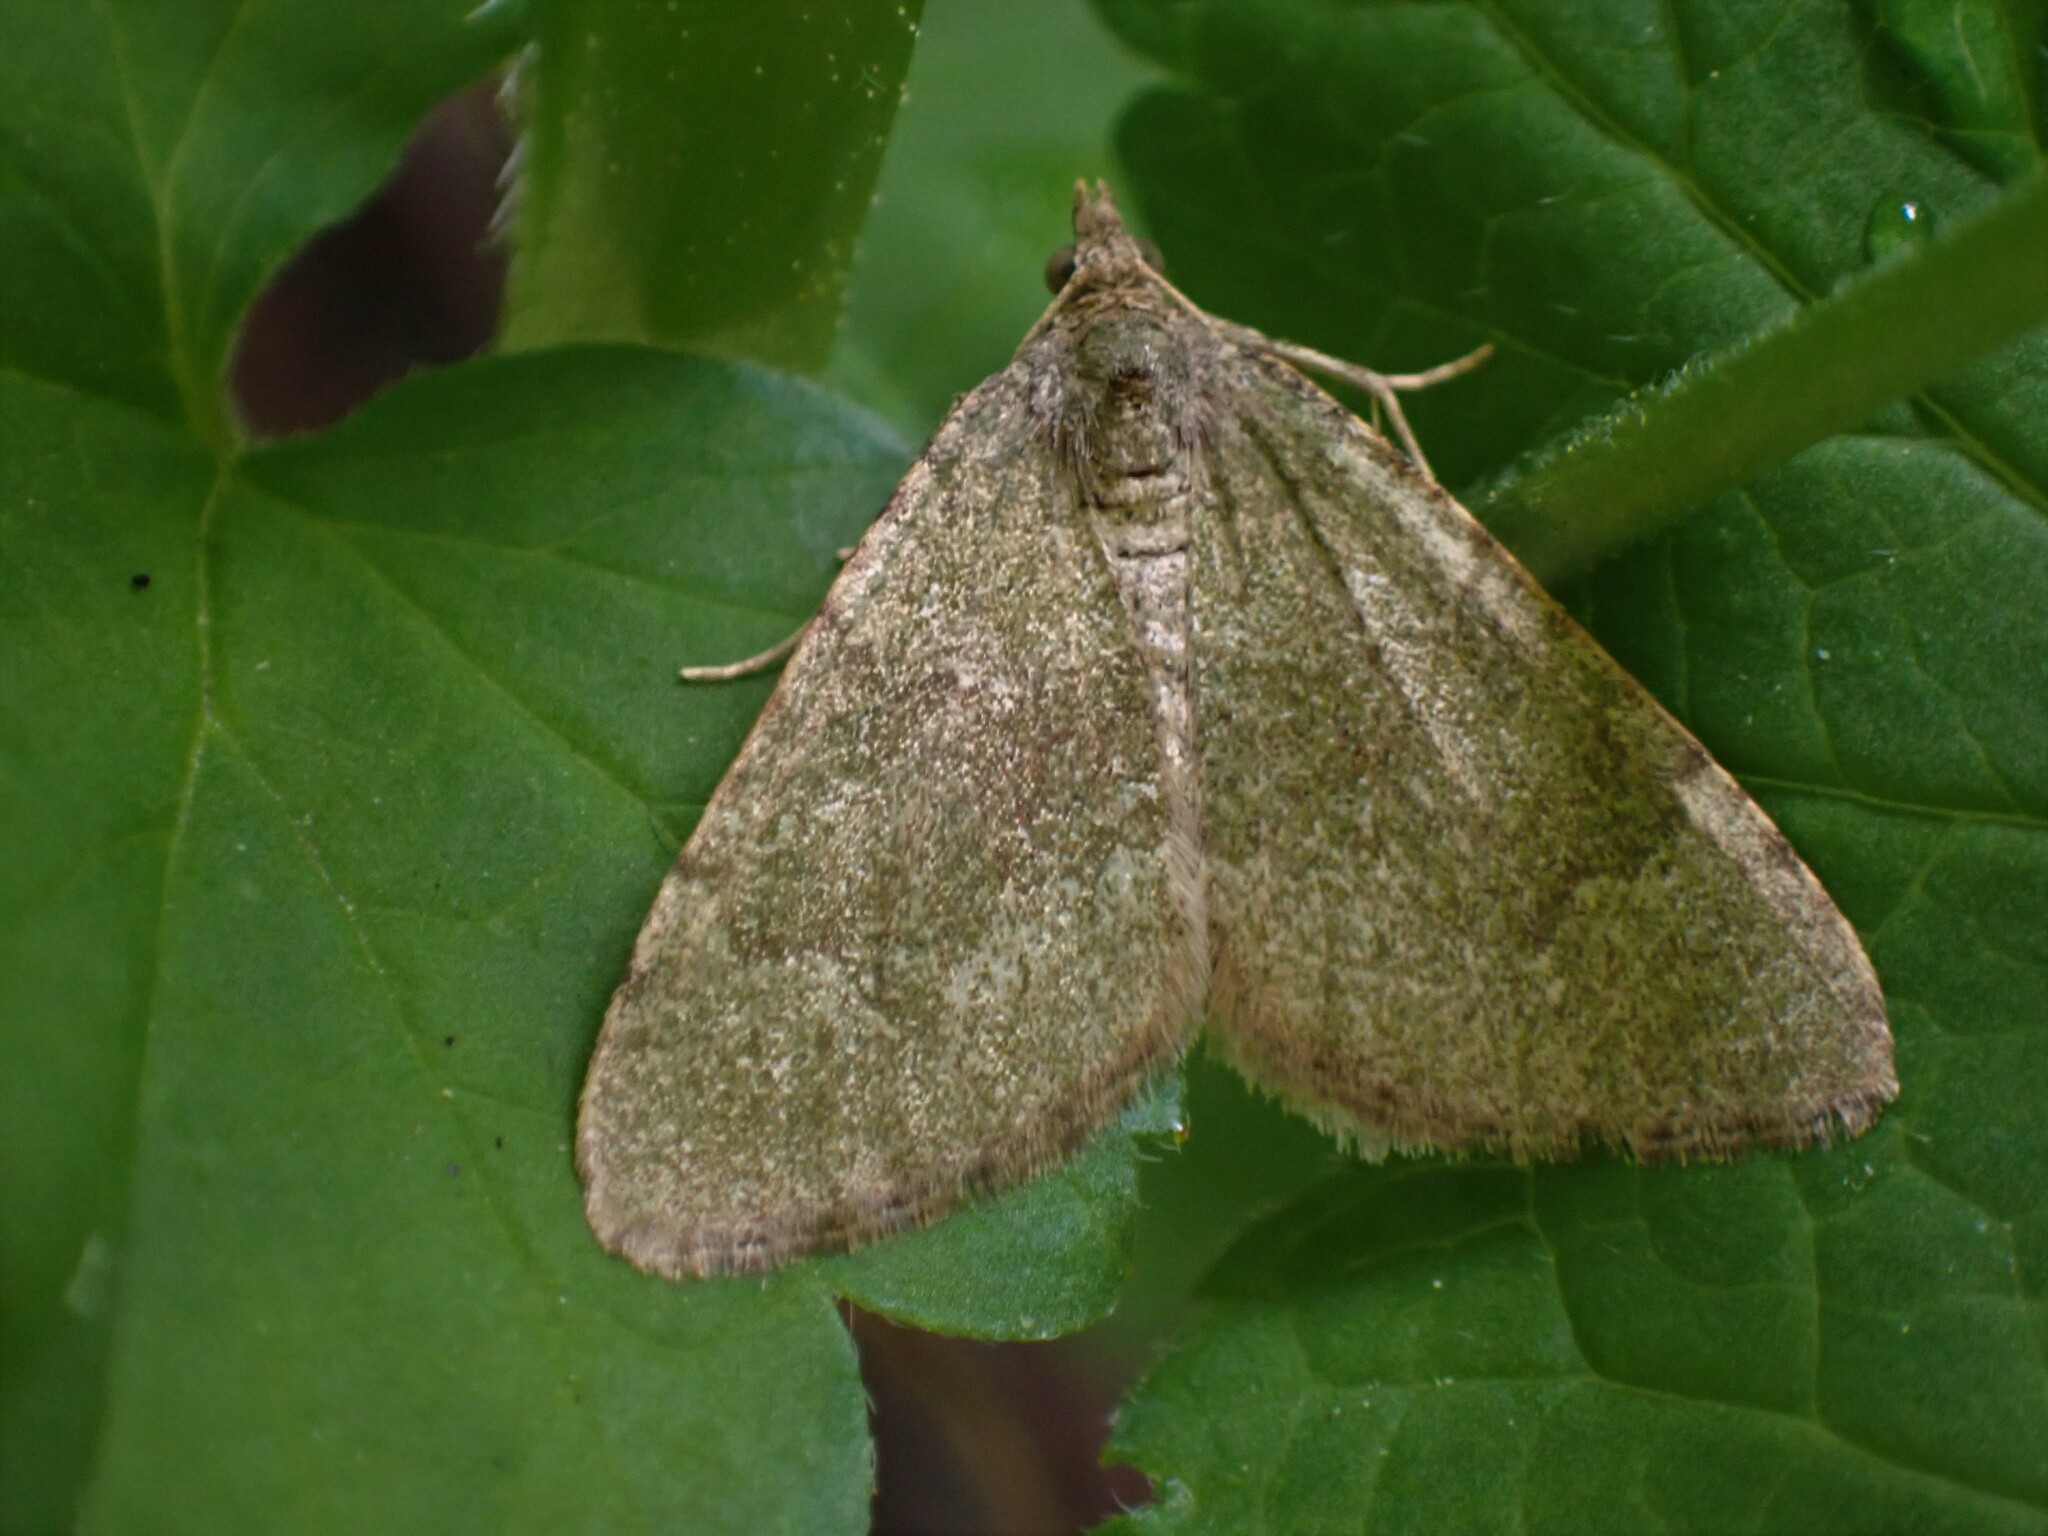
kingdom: Animalia
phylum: Arthropoda
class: Insecta
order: Lepidoptera
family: Geometridae
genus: Epyaxa
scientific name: Epyaxa rosearia
